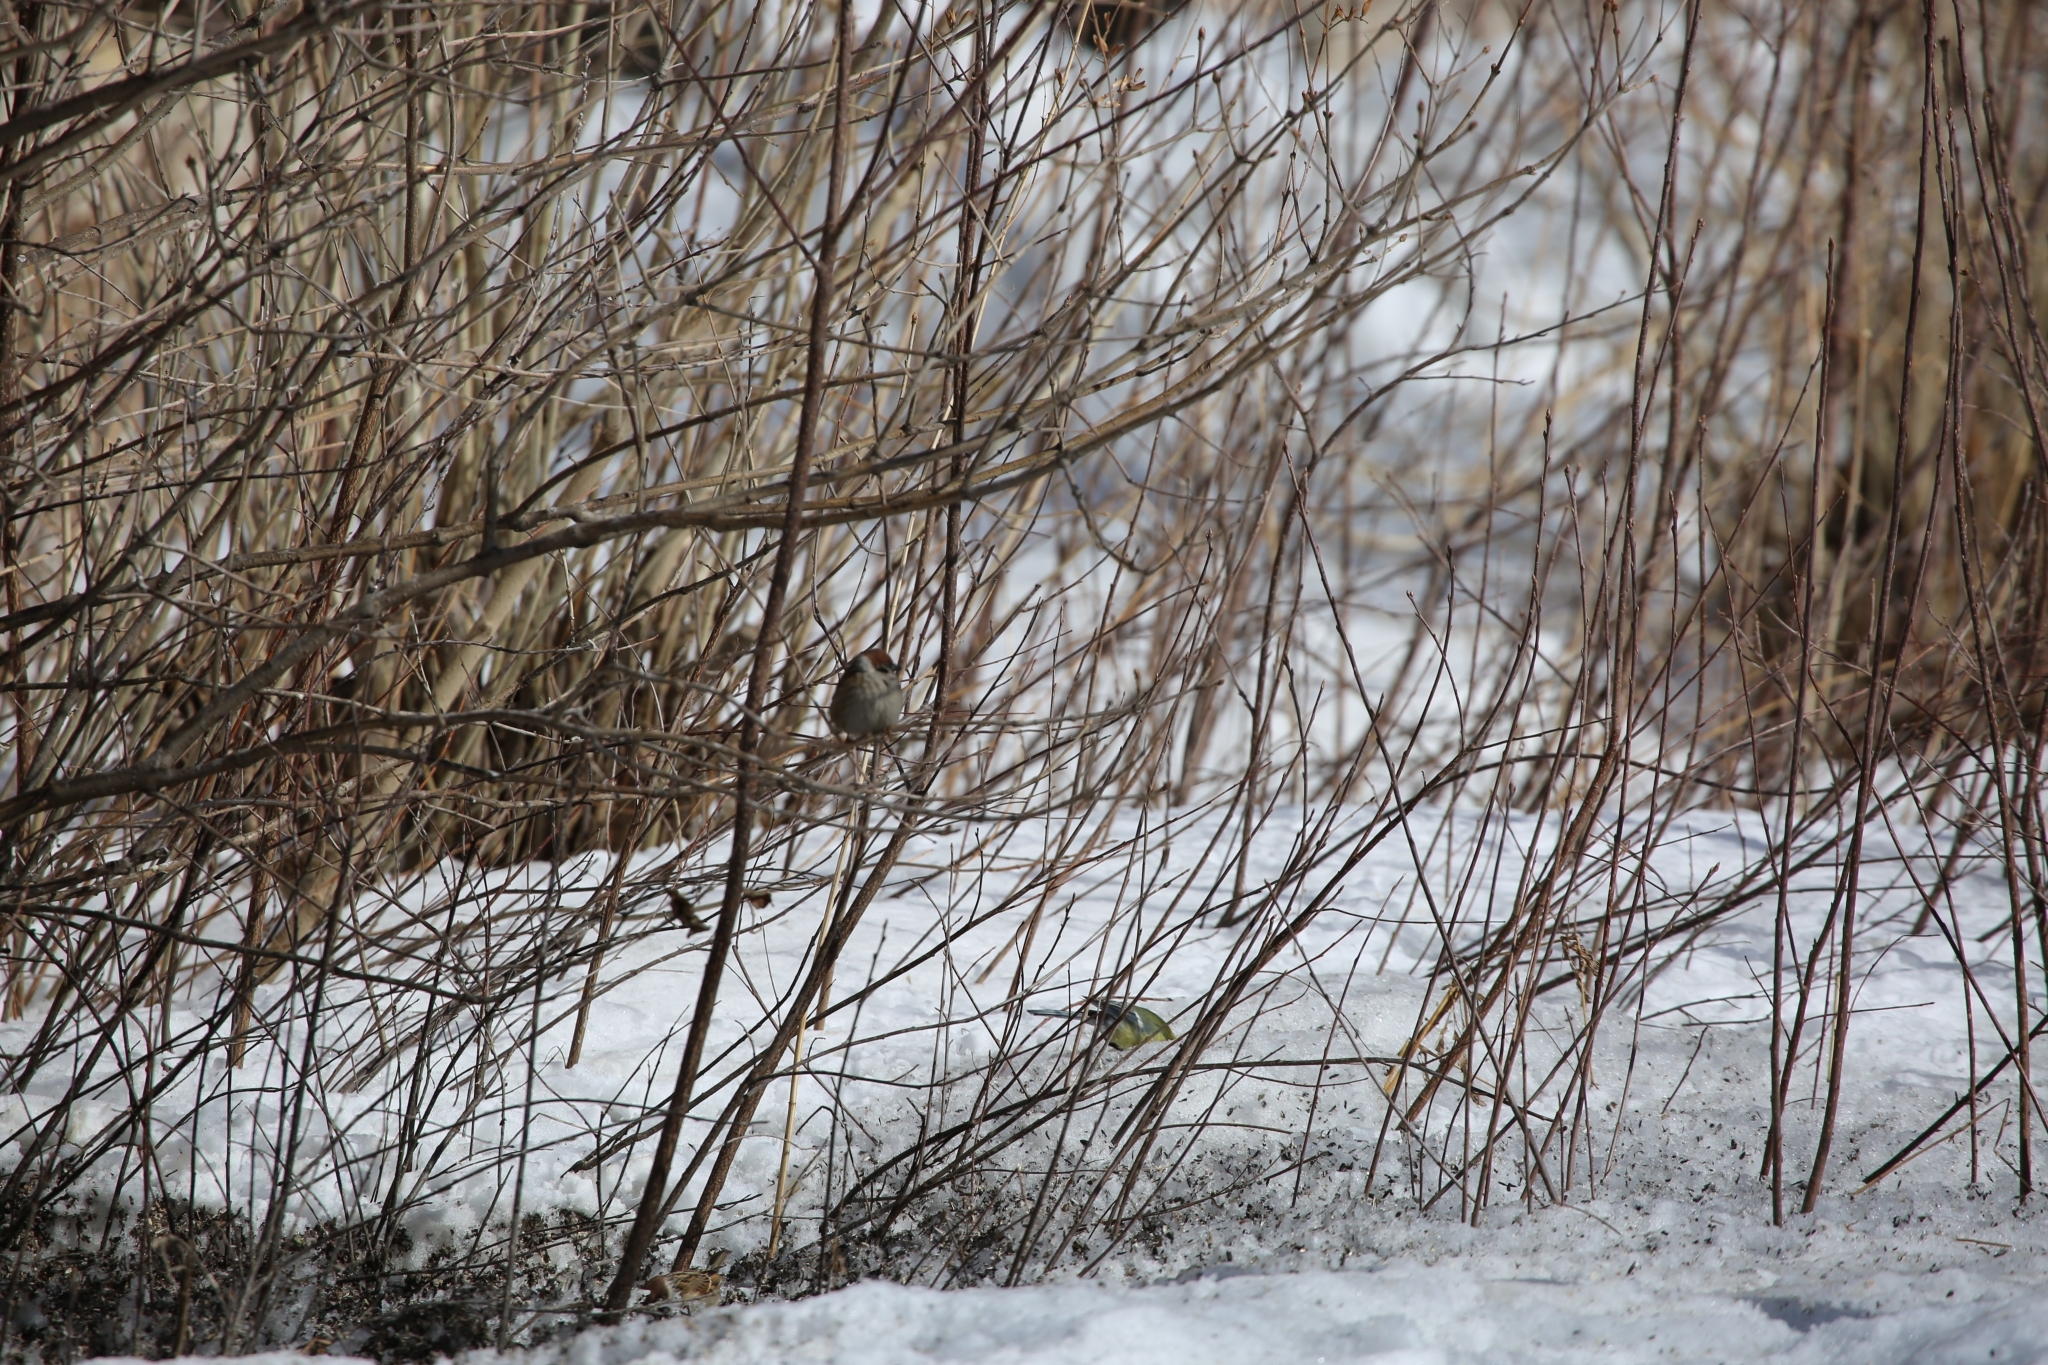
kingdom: Animalia
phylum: Chordata
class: Aves
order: Passeriformes
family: Passeridae
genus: Passer
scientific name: Passer montanus
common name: Eurasian tree sparrow
